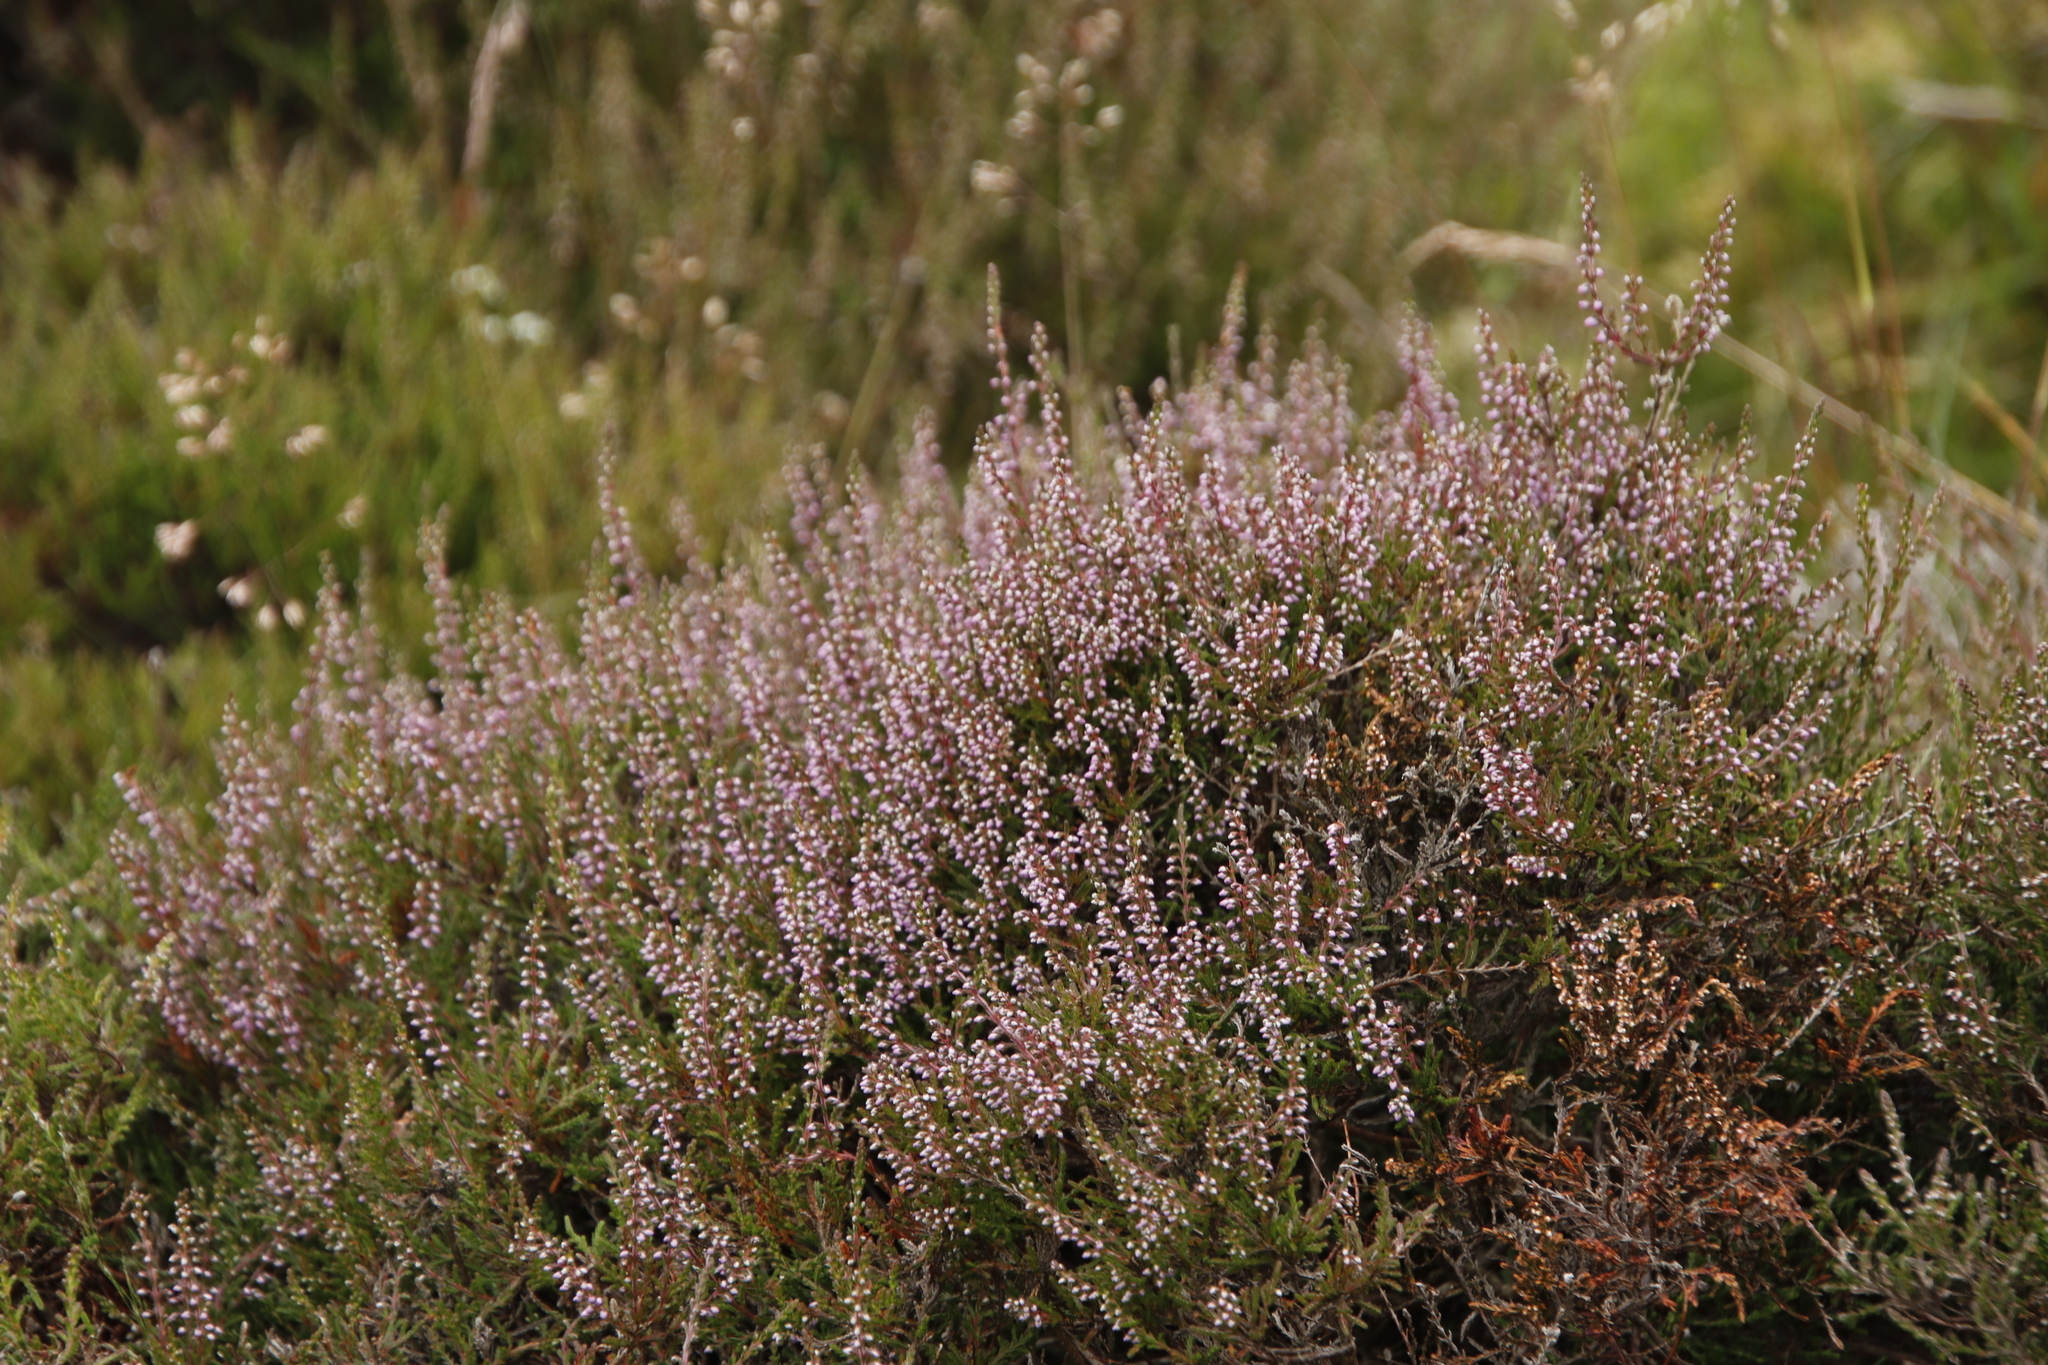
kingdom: Plantae
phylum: Tracheophyta
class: Magnoliopsida
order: Ericales
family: Ericaceae
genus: Calluna
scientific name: Calluna vulgaris
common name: Heather
